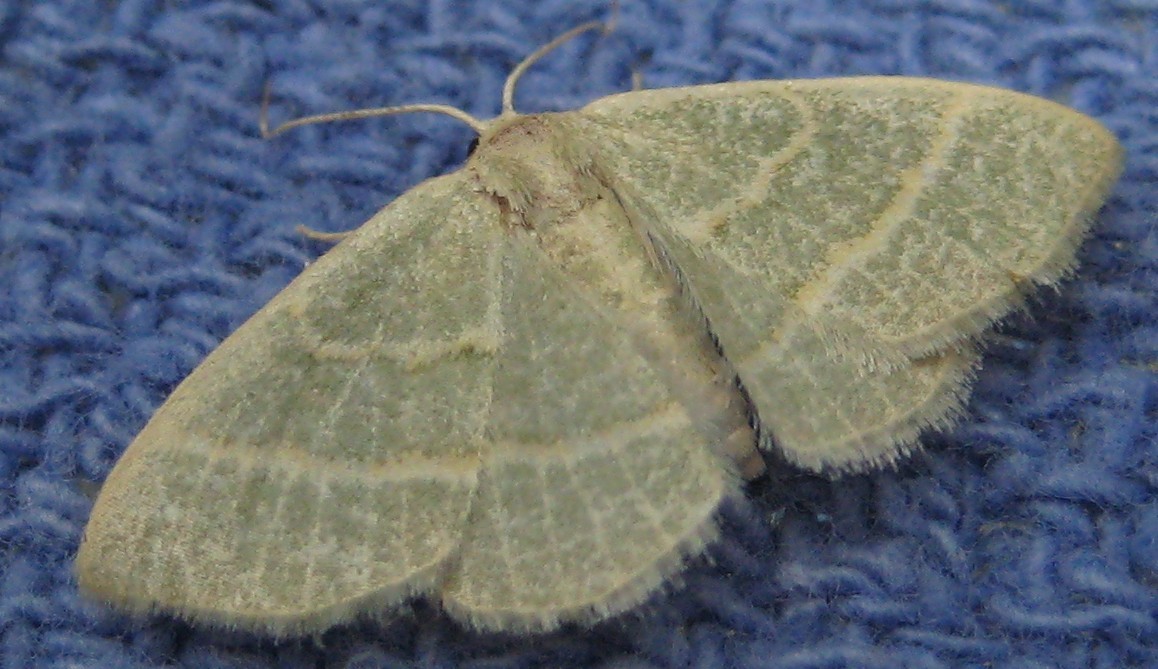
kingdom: Animalia
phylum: Arthropoda
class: Insecta
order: Lepidoptera
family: Geometridae
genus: Chlorochlamys
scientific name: Chlorochlamys chloroleucaria
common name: Blackberry looper
